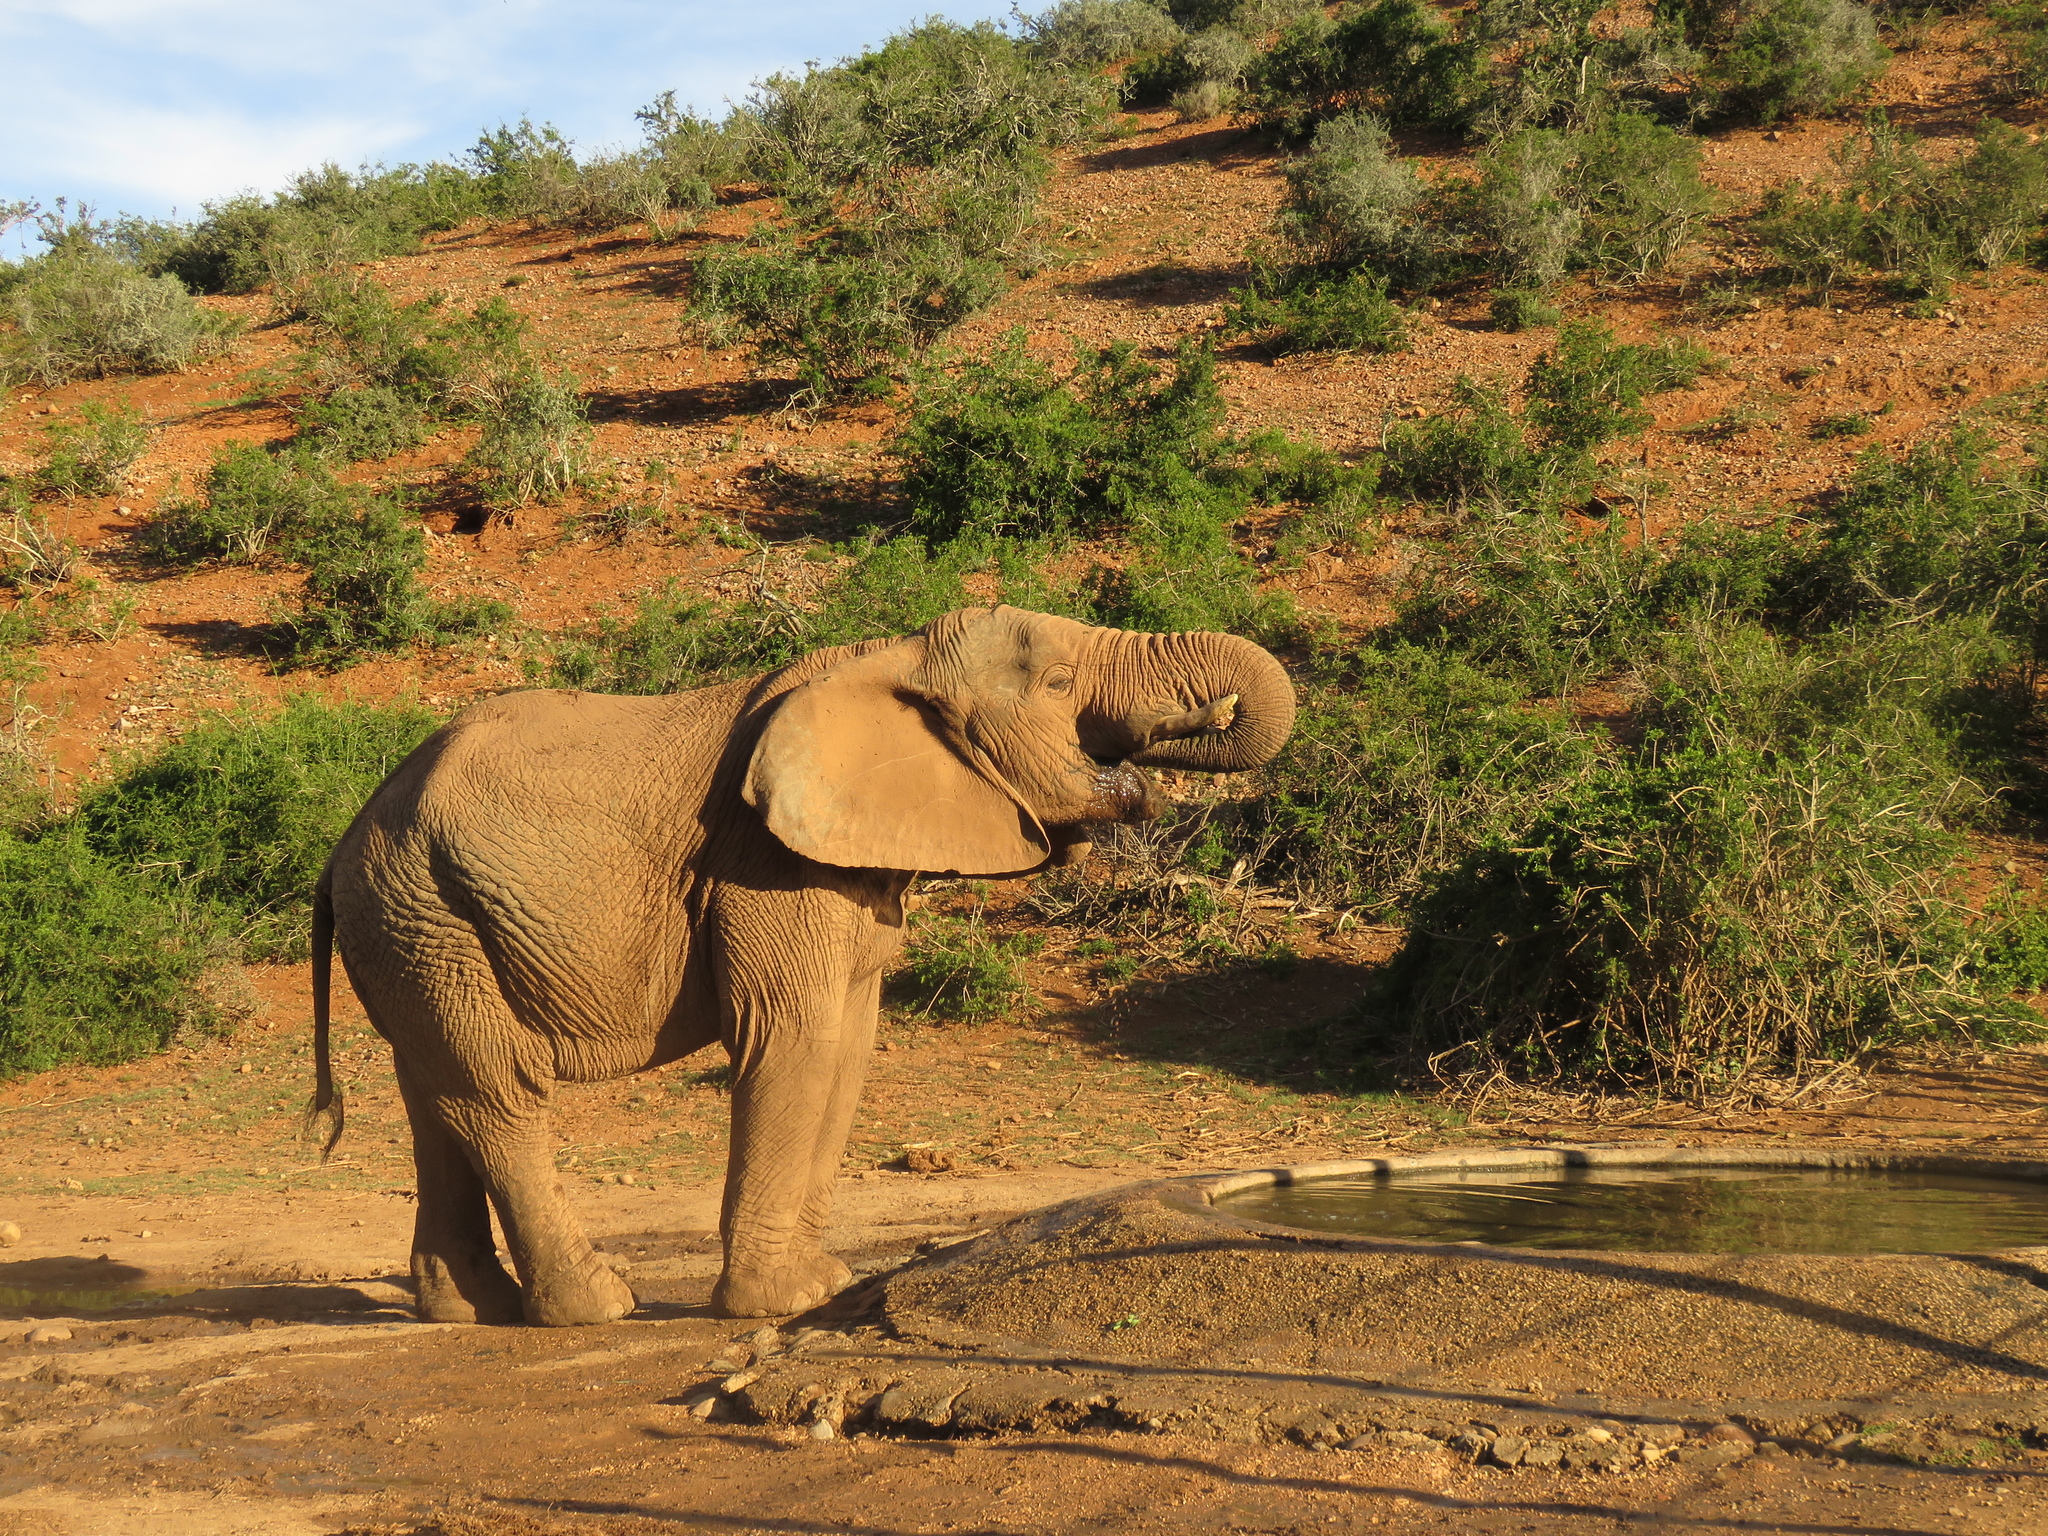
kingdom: Animalia
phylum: Chordata
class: Mammalia
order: Proboscidea
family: Elephantidae
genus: Loxodonta
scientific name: Loxodonta africana
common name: African elephant
